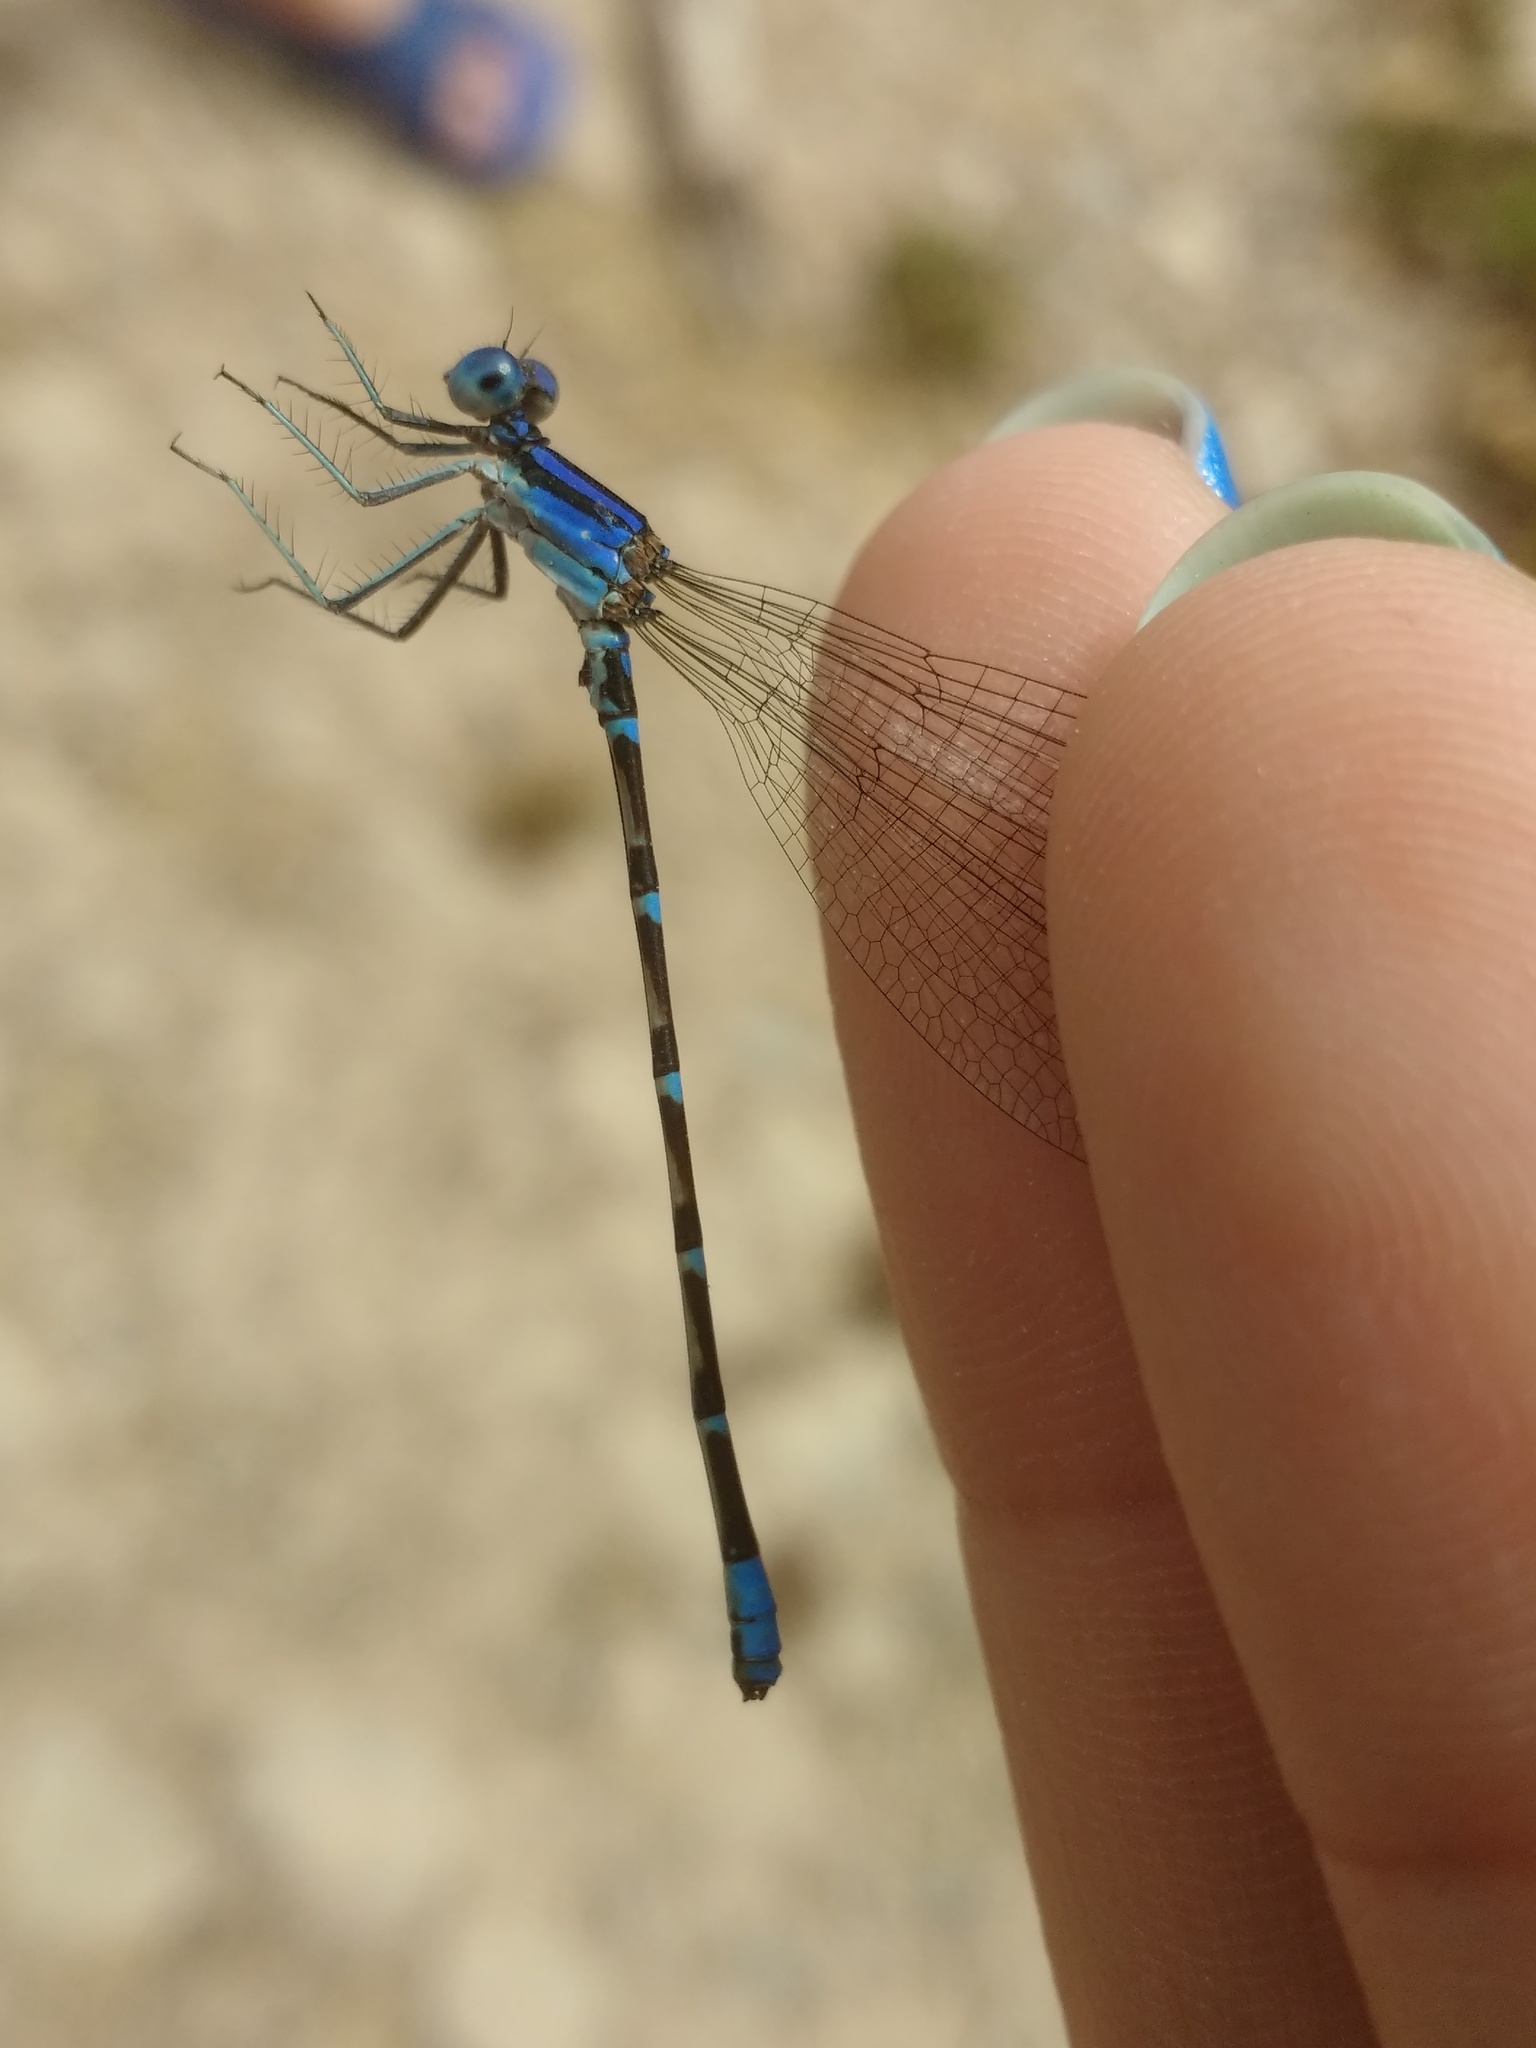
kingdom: Animalia
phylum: Arthropoda
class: Insecta
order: Odonata
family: Coenagrionidae
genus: Argia
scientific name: Argia sedula
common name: Blue-ringed dancer
